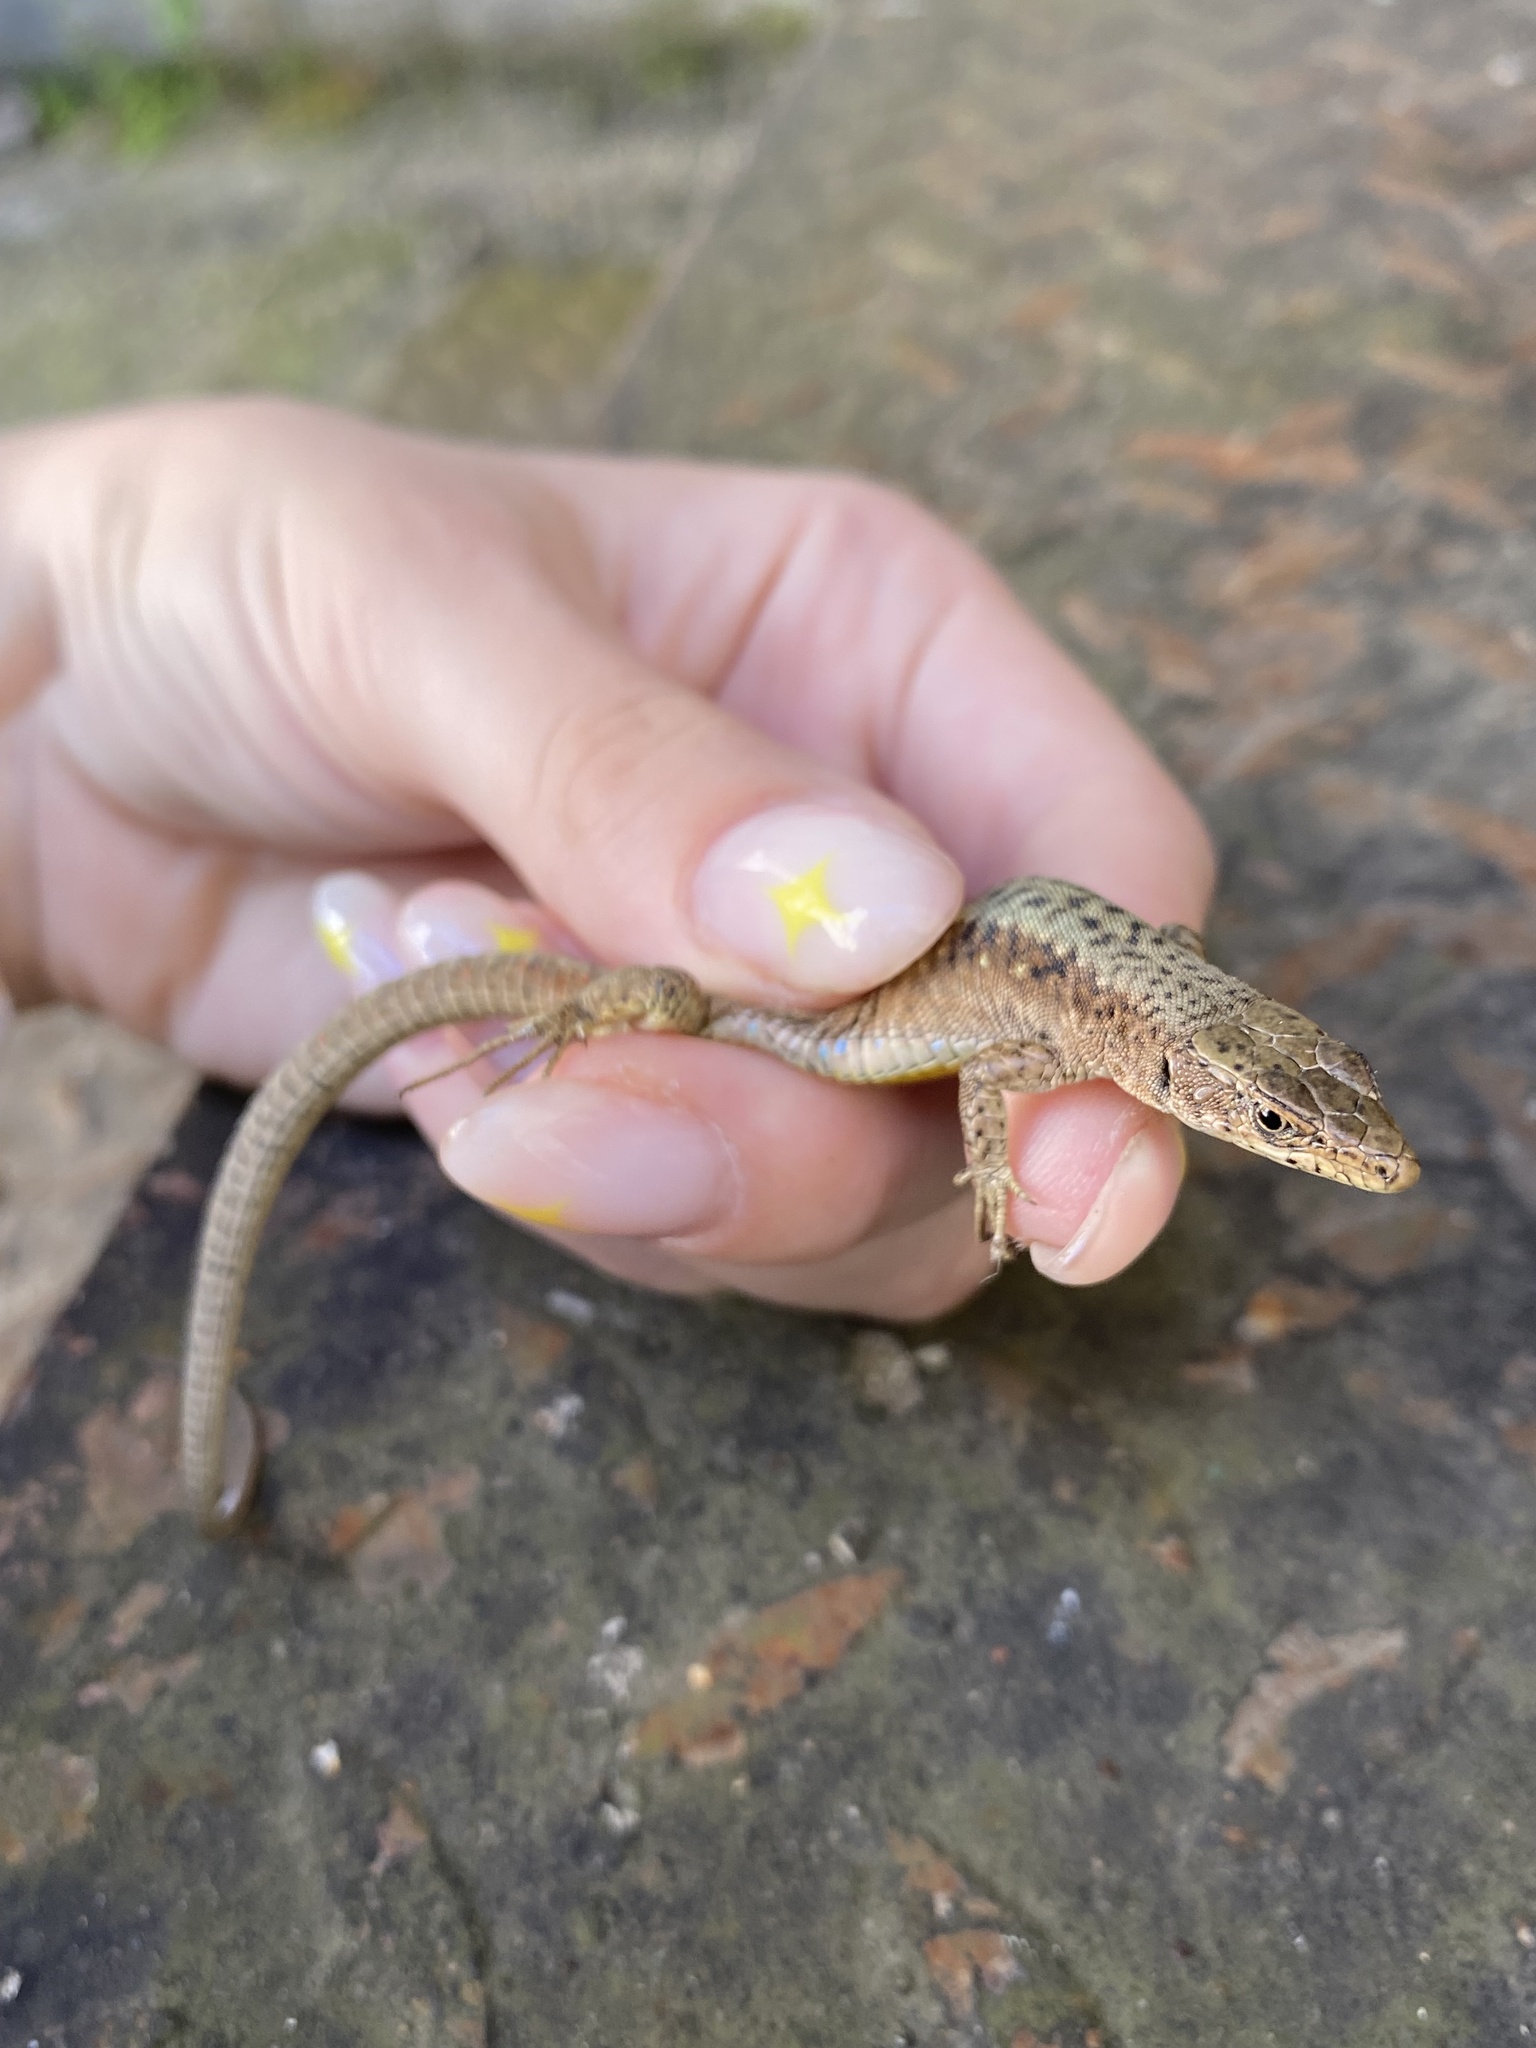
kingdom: Animalia
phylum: Chordata
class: Squamata
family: Lacertidae
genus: Darevskia
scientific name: Darevskia saxicola
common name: Rock lizard
